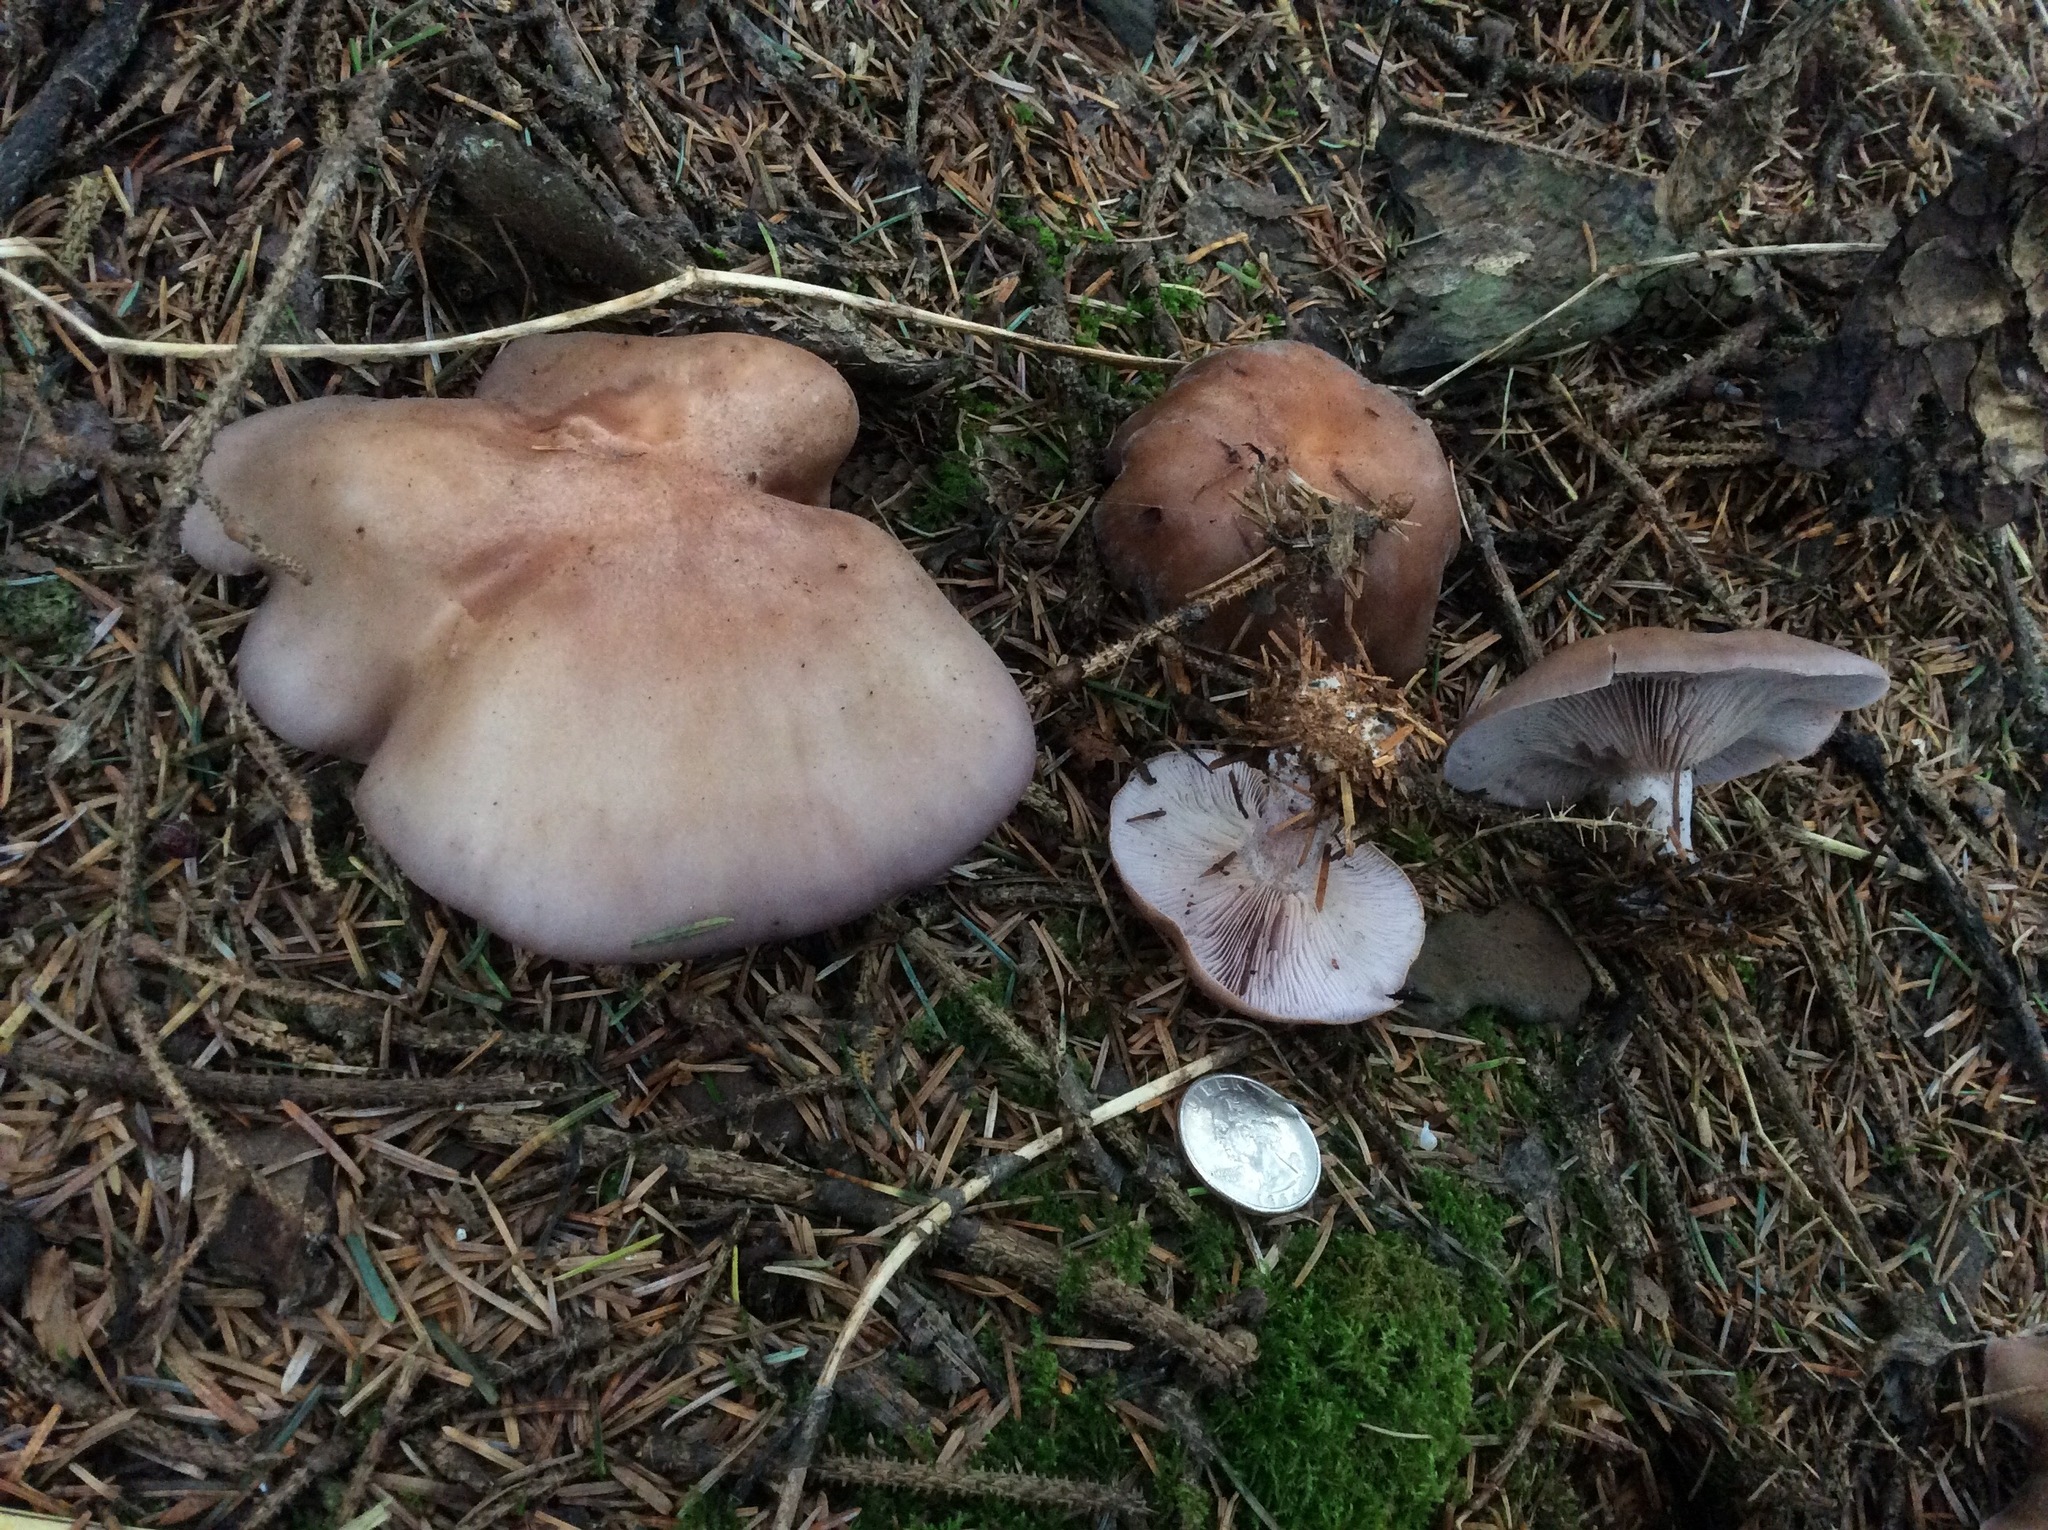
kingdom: Fungi
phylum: Basidiomycota
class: Agaricomycetes
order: Agaricales
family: Tricholomataceae
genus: Collybia
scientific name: Collybia
